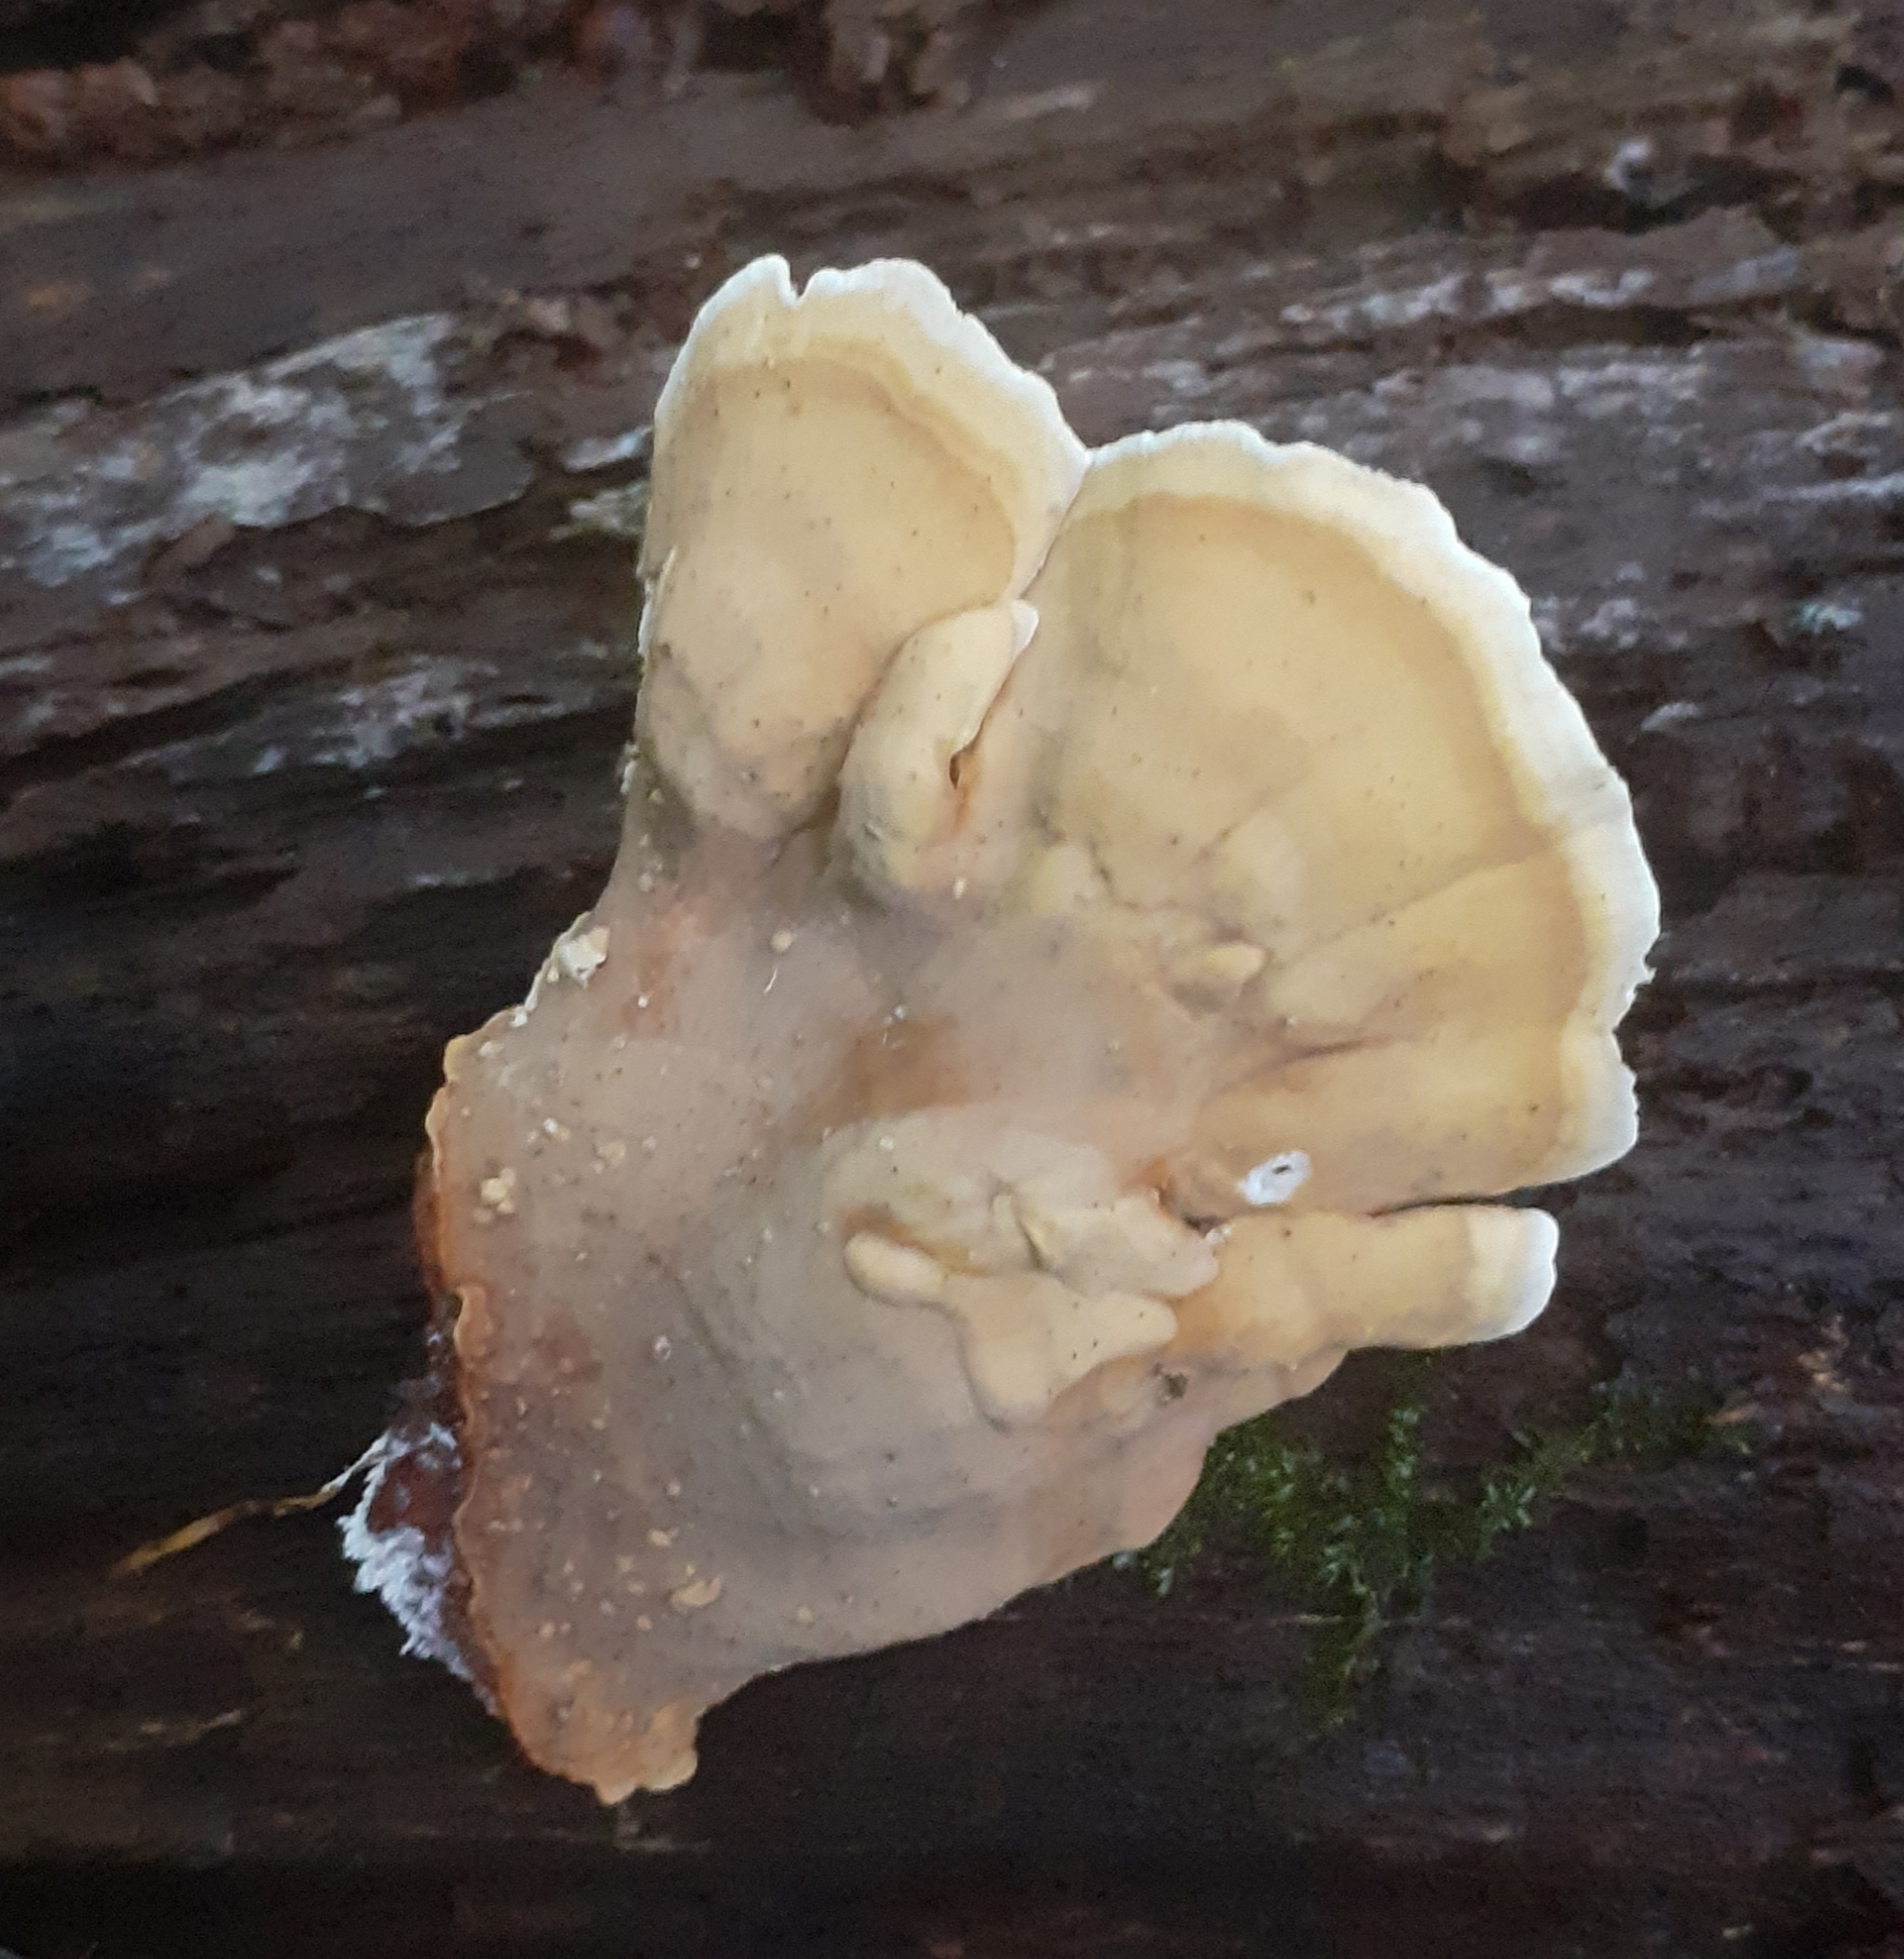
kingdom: Fungi
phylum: Basidiomycota
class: Agaricomycetes
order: Russulales
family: Stereaceae
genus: Stereum
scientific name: Stereum versicolor
